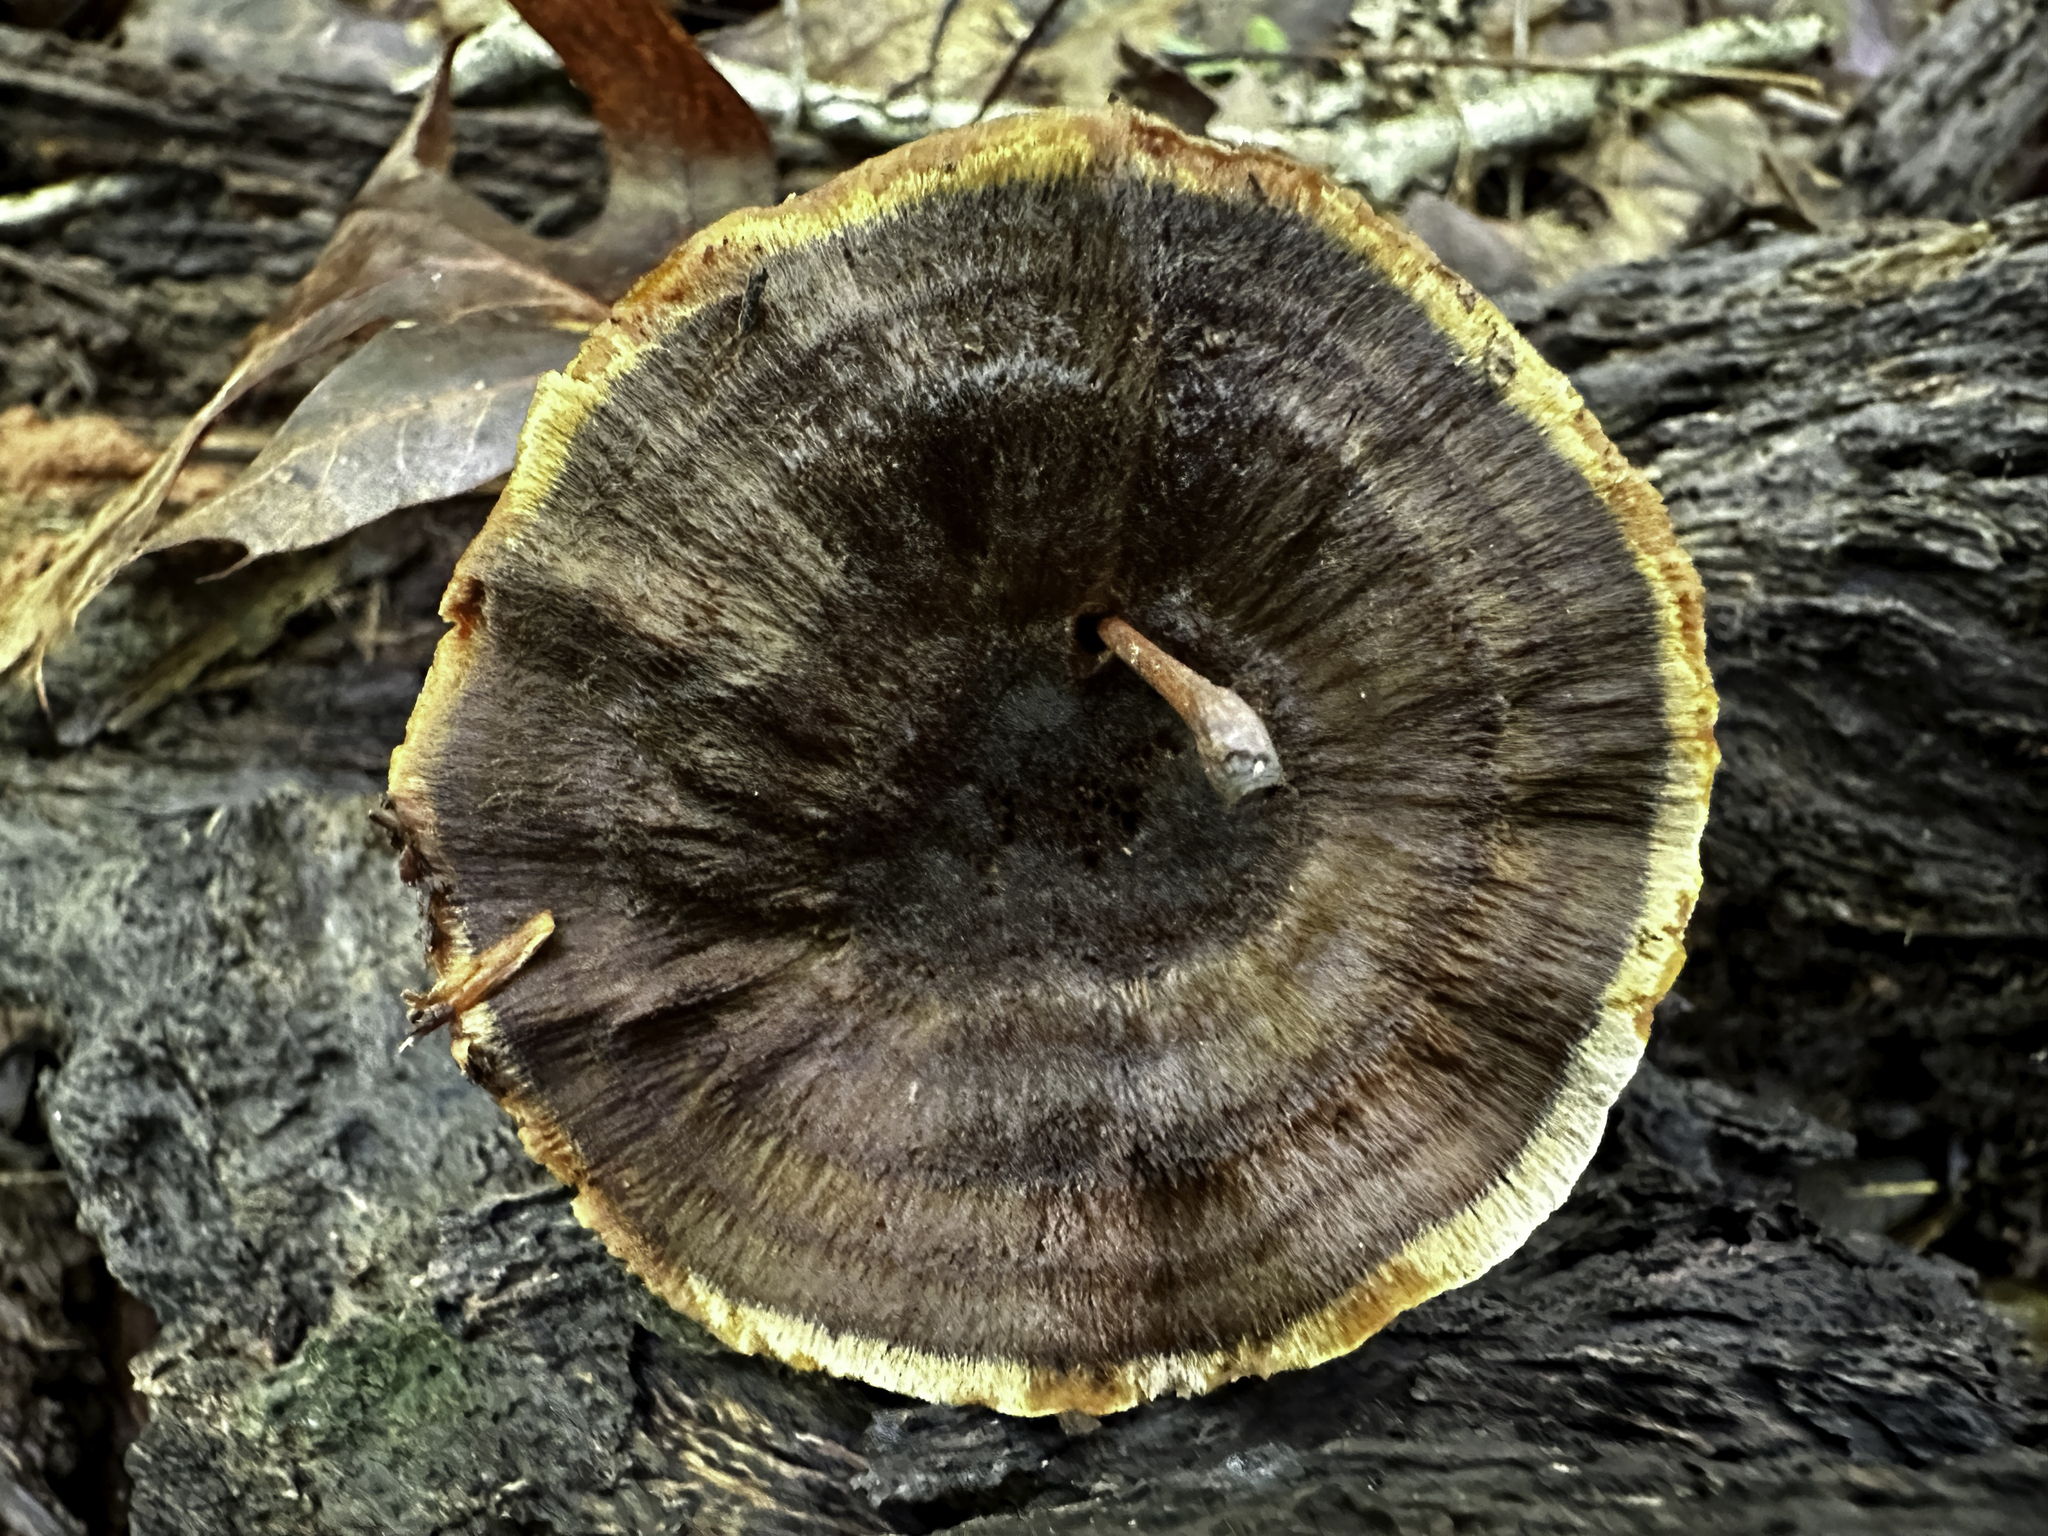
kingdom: Fungi
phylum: Basidiomycota
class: Agaricomycetes
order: Hymenochaetales
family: Hymenochaetaceae
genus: Coltricia
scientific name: Coltricia cinnamomea
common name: Shiny cinnamon polypore
